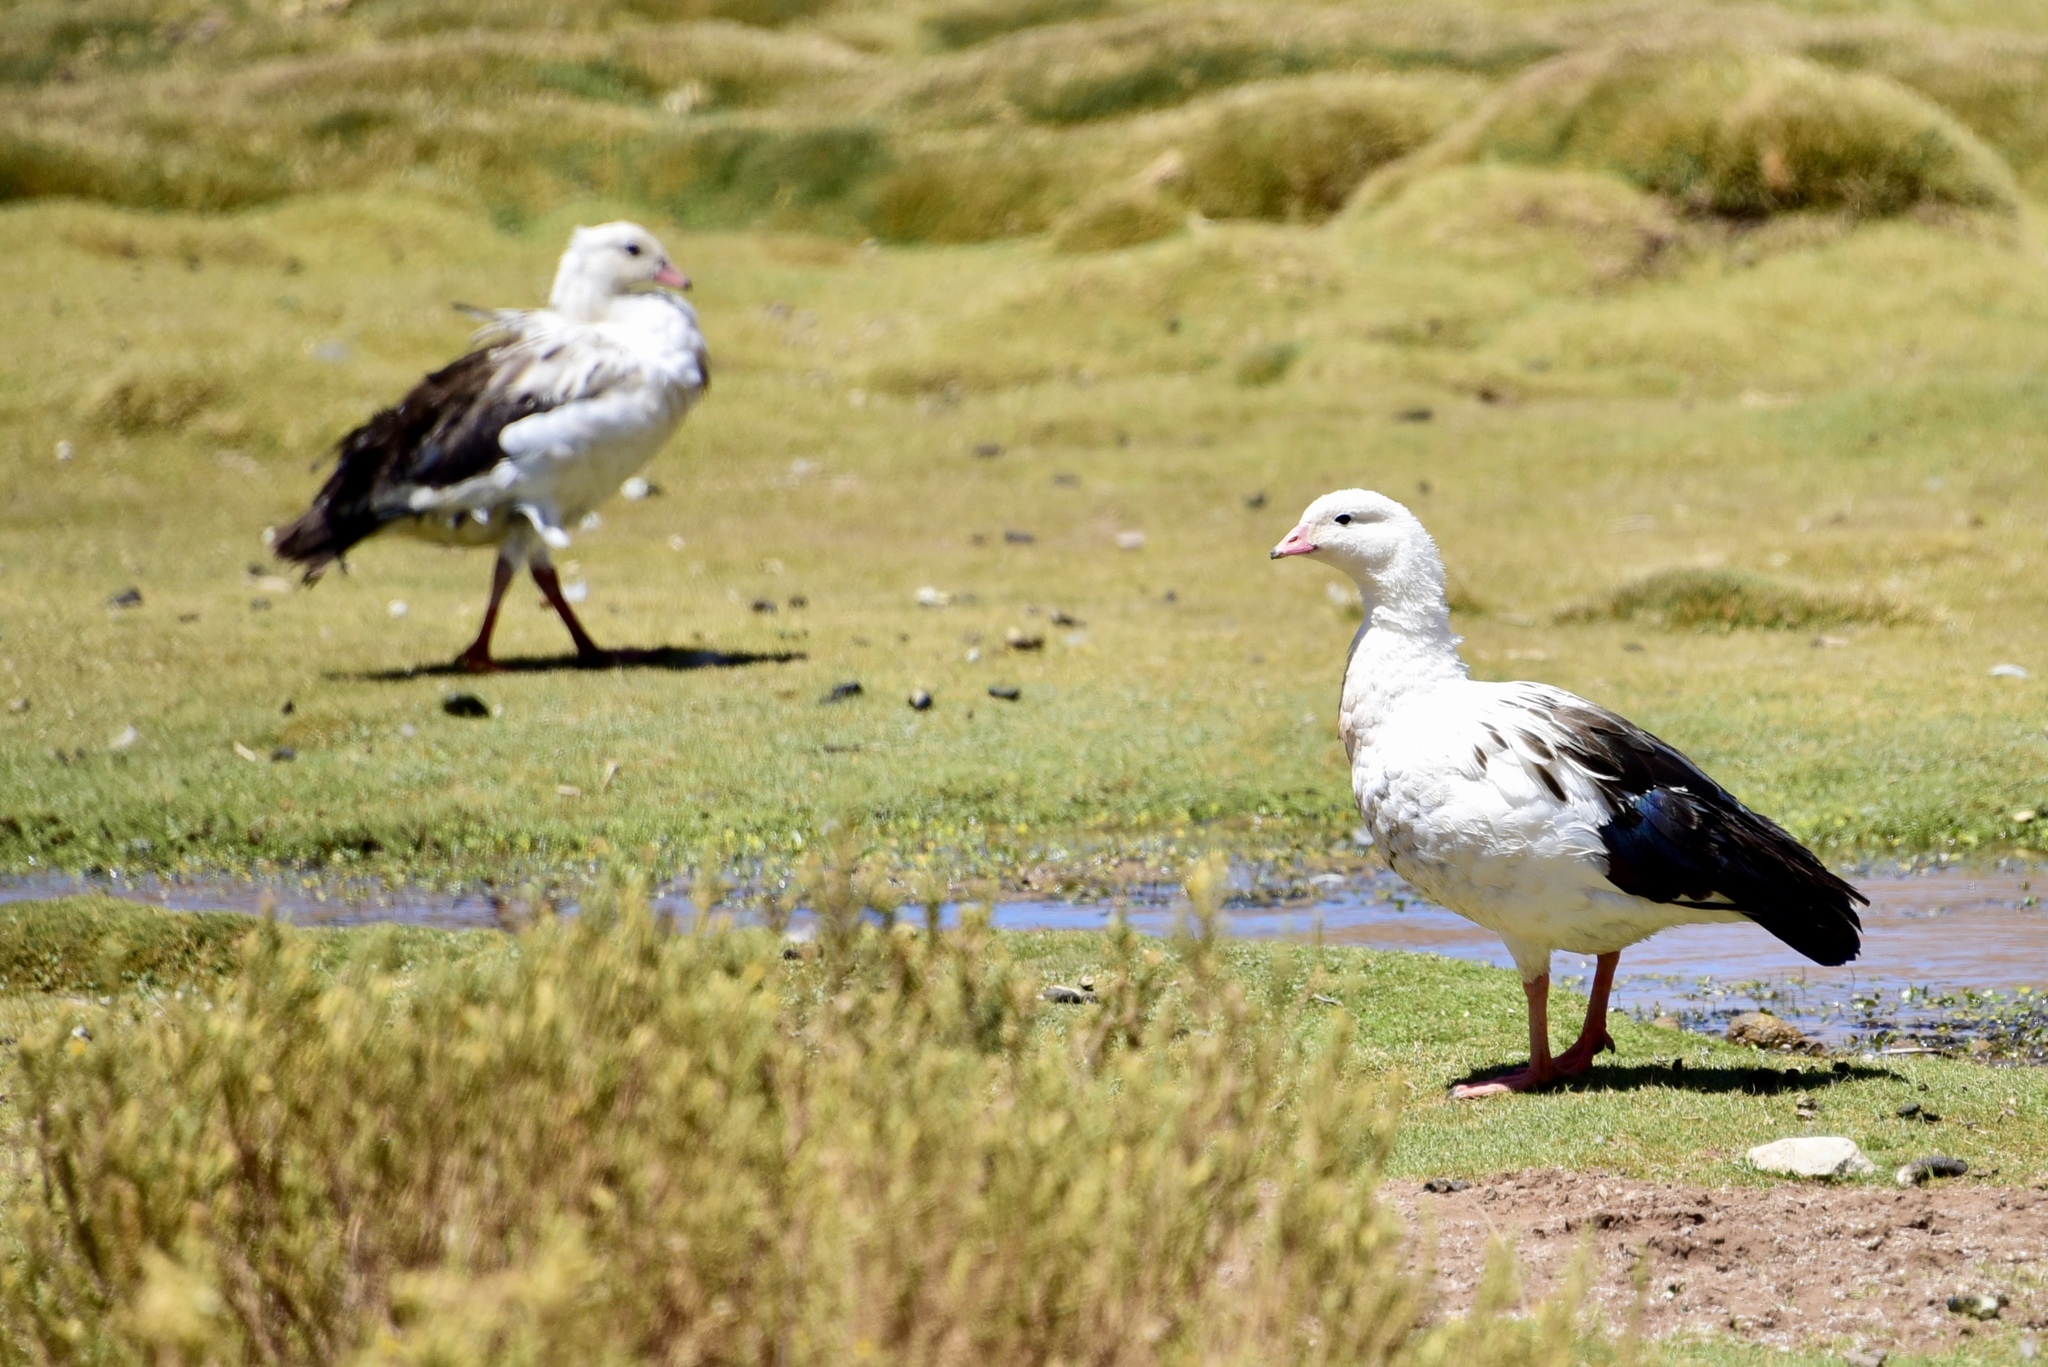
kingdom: Animalia
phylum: Chordata
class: Aves
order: Anseriformes
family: Anatidae
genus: Chloephaga
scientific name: Chloephaga melanoptera
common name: Andean goose
